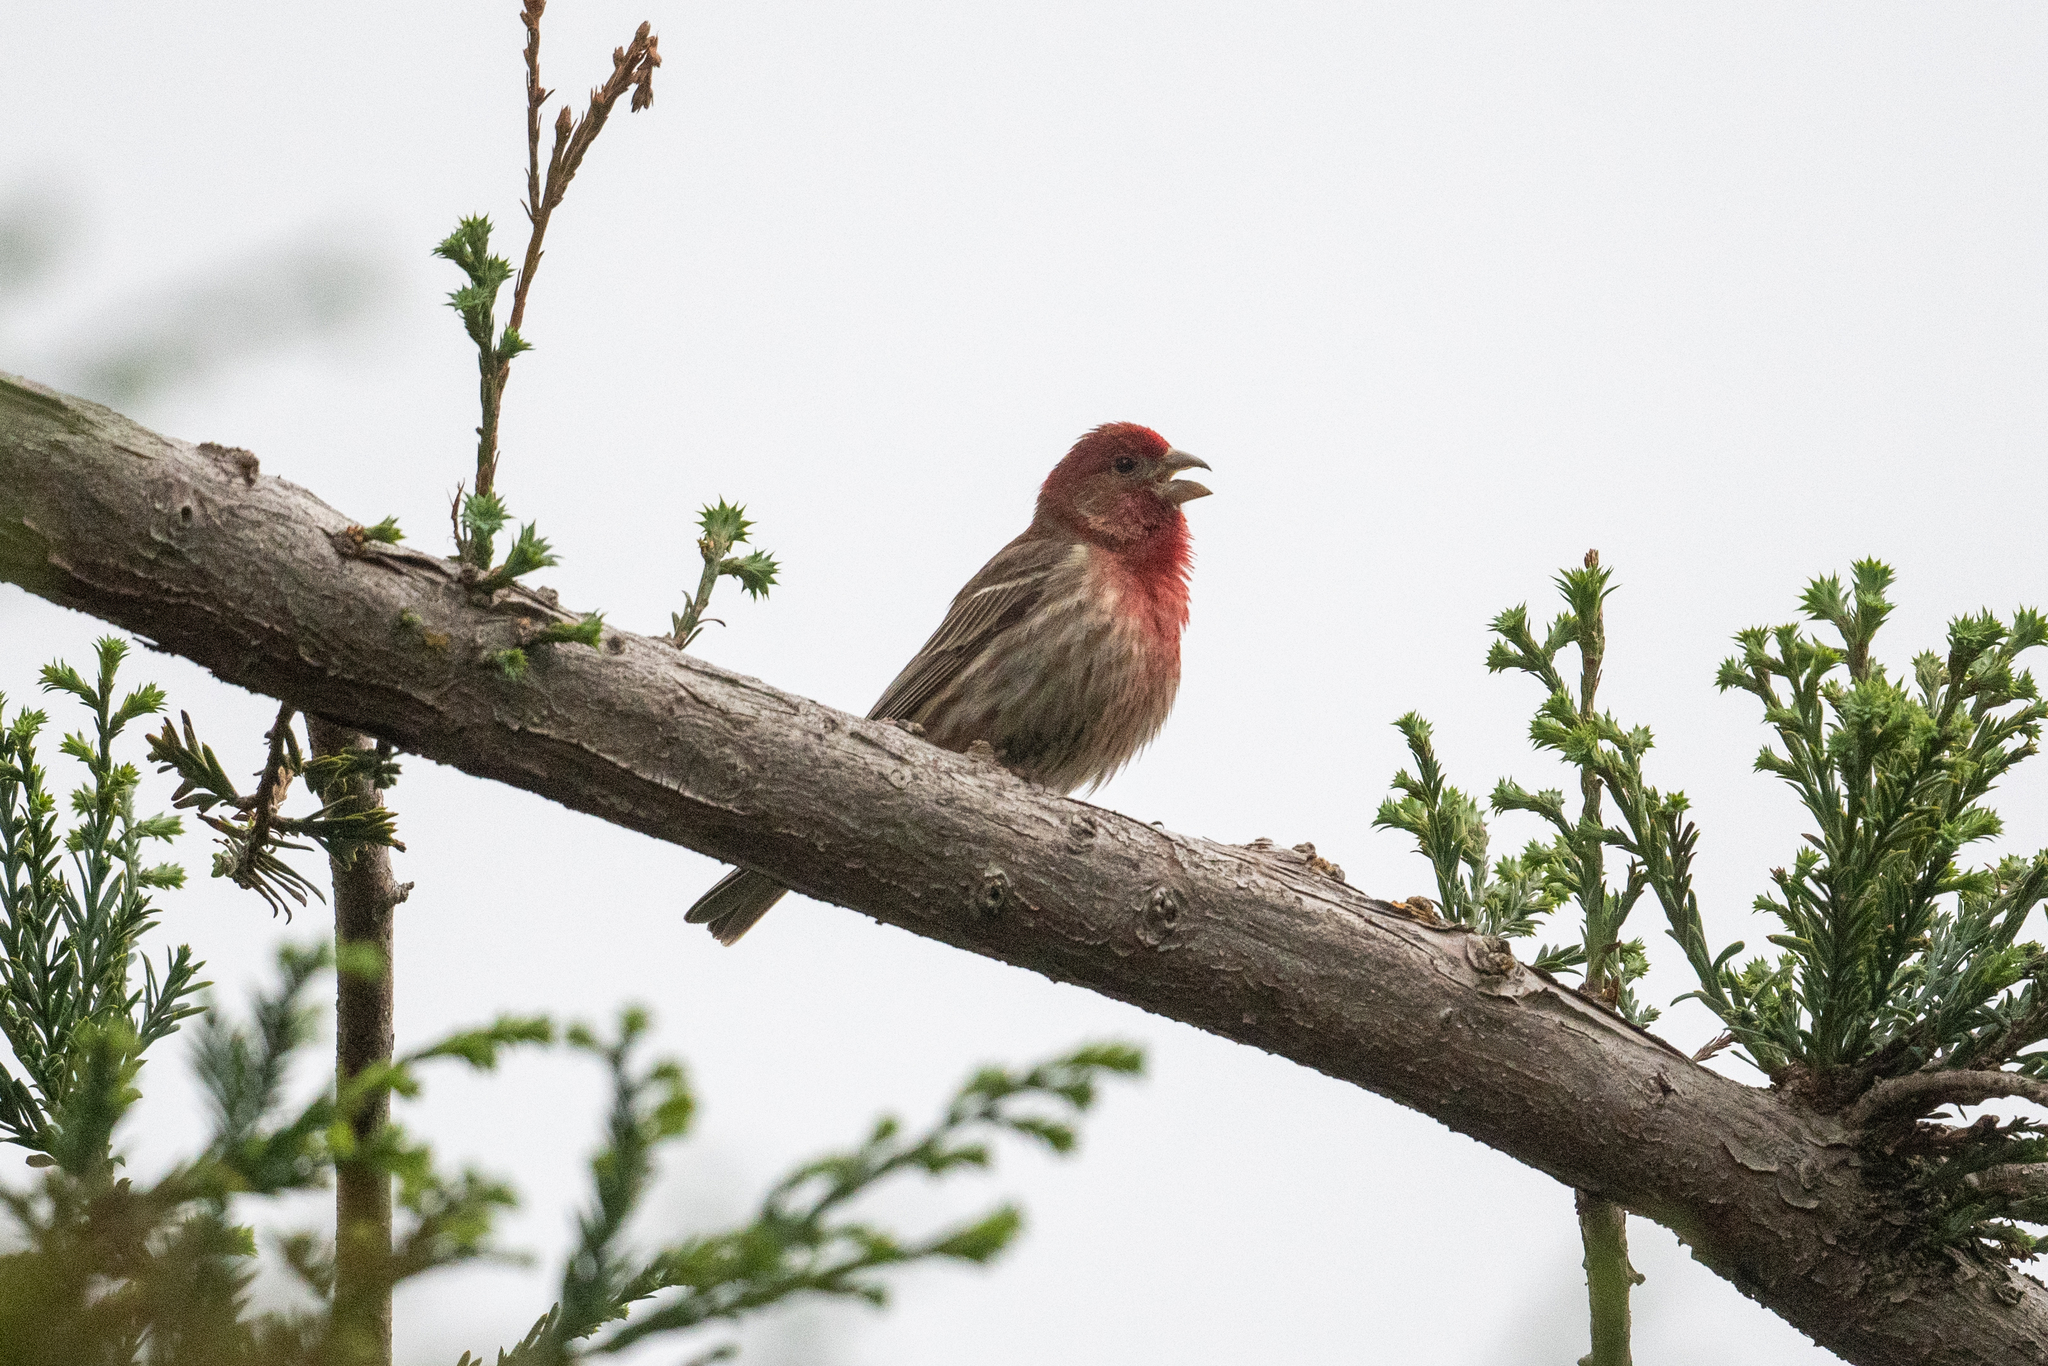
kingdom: Animalia
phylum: Chordata
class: Aves
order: Passeriformes
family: Fringillidae
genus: Haemorhous
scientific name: Haemorhous mexicanus
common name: House finch
